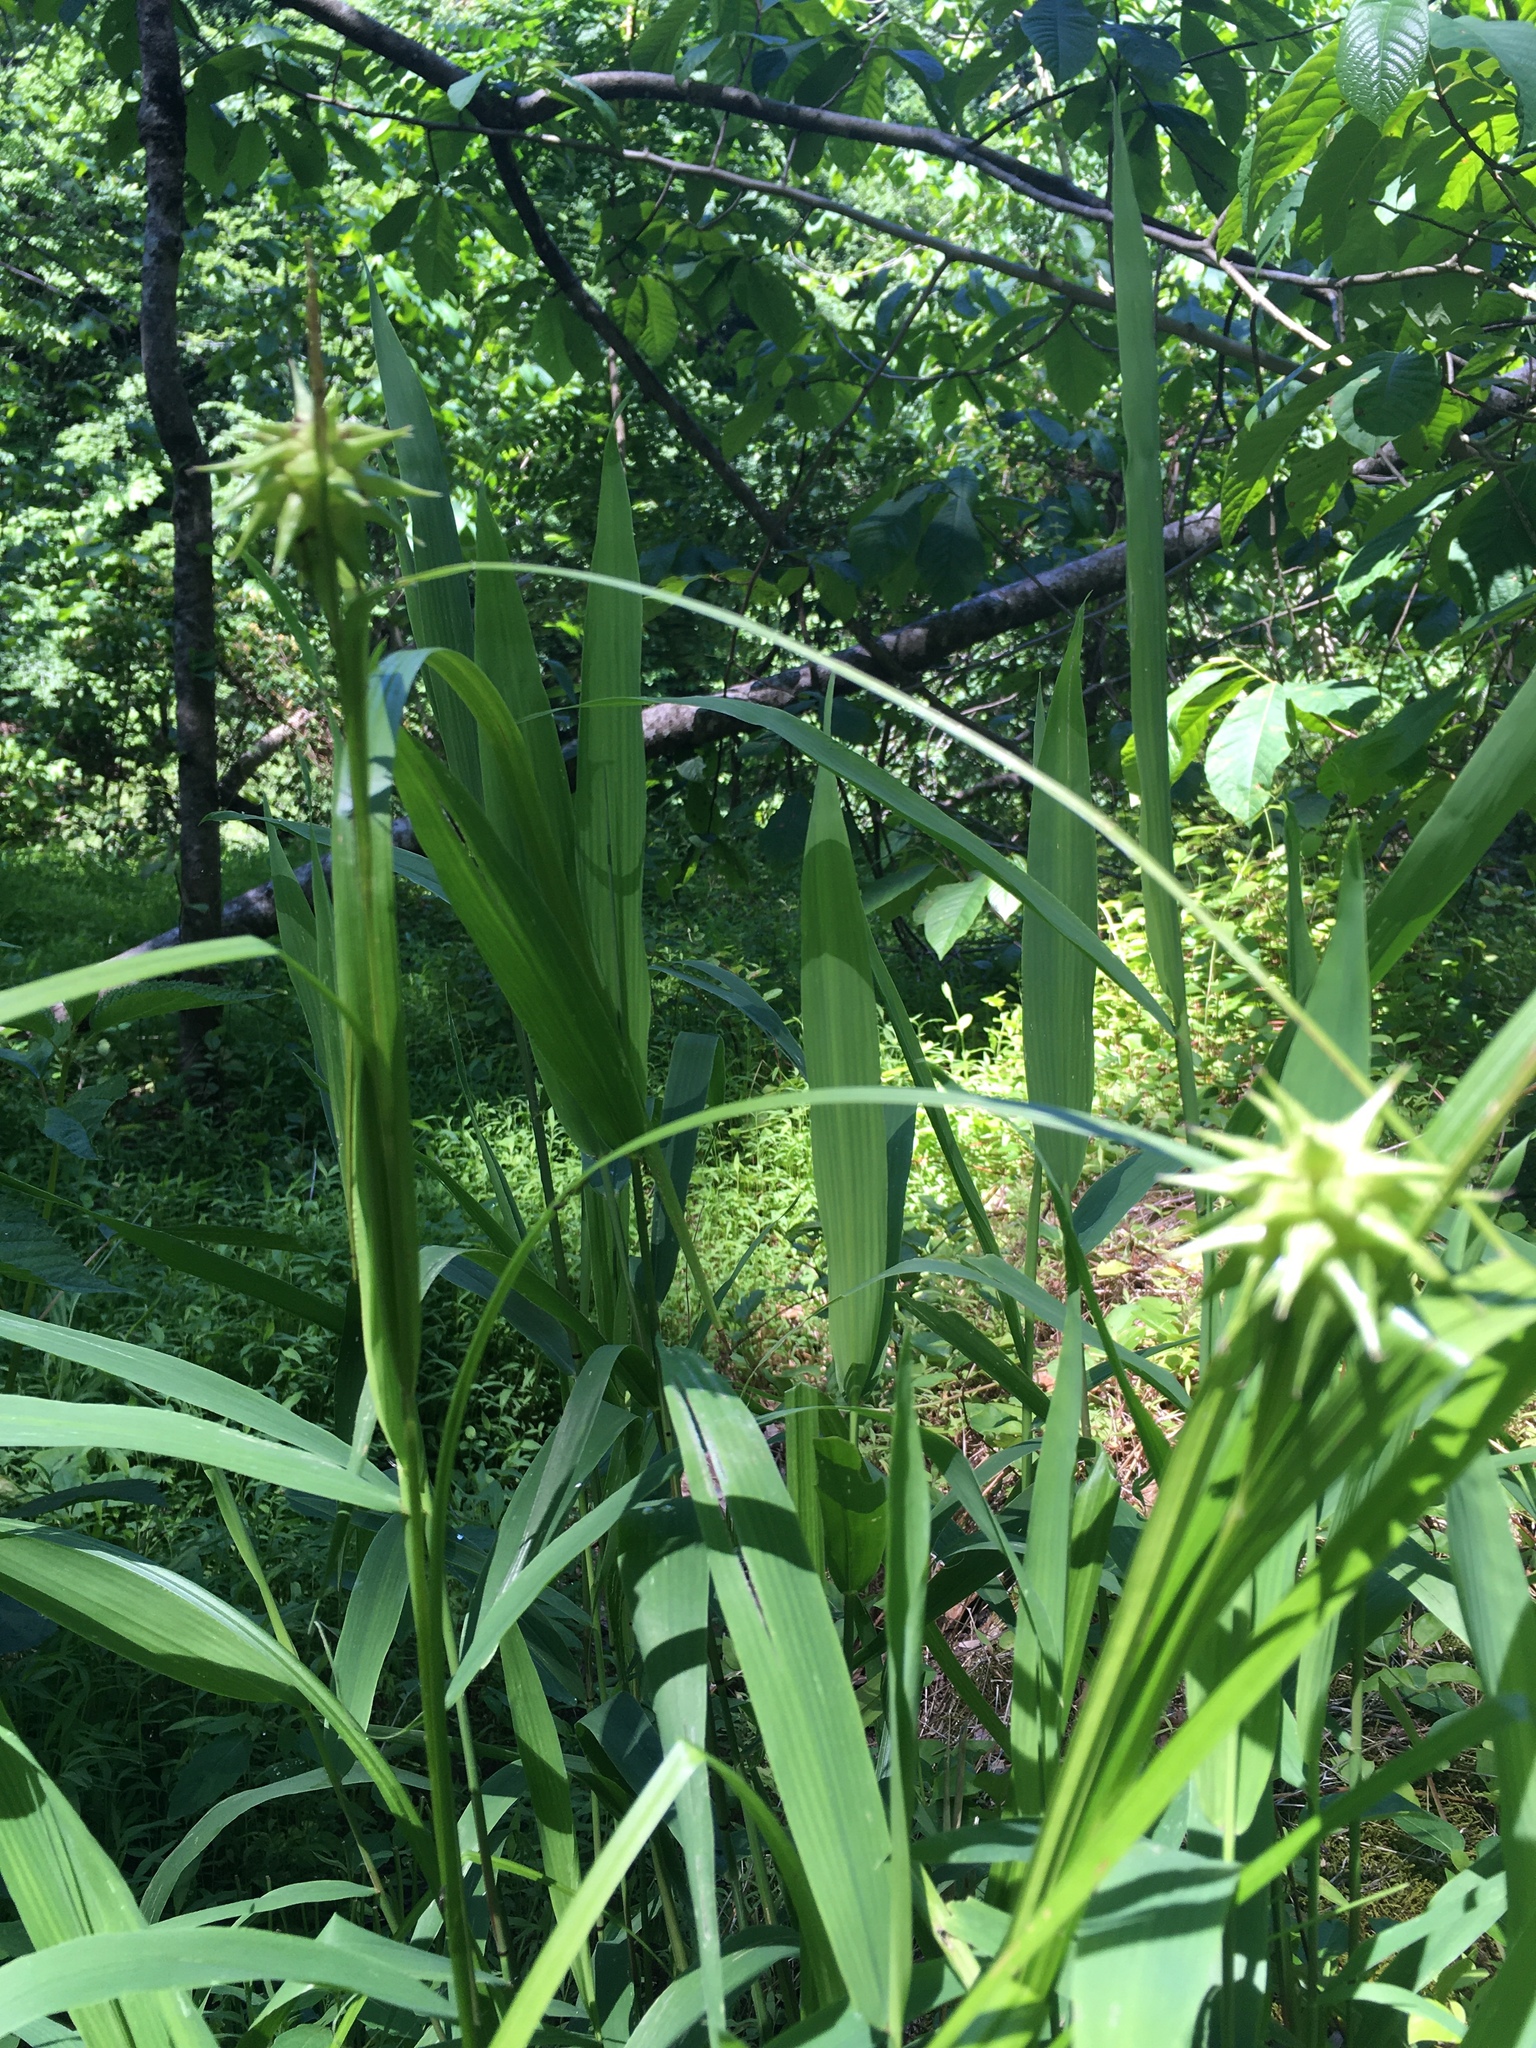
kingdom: Plantae
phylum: Tracheophyta
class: Liliopsida
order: Poales
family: Cyperaceae
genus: Carex
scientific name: Carex grayi
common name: Asa gray's sedge
